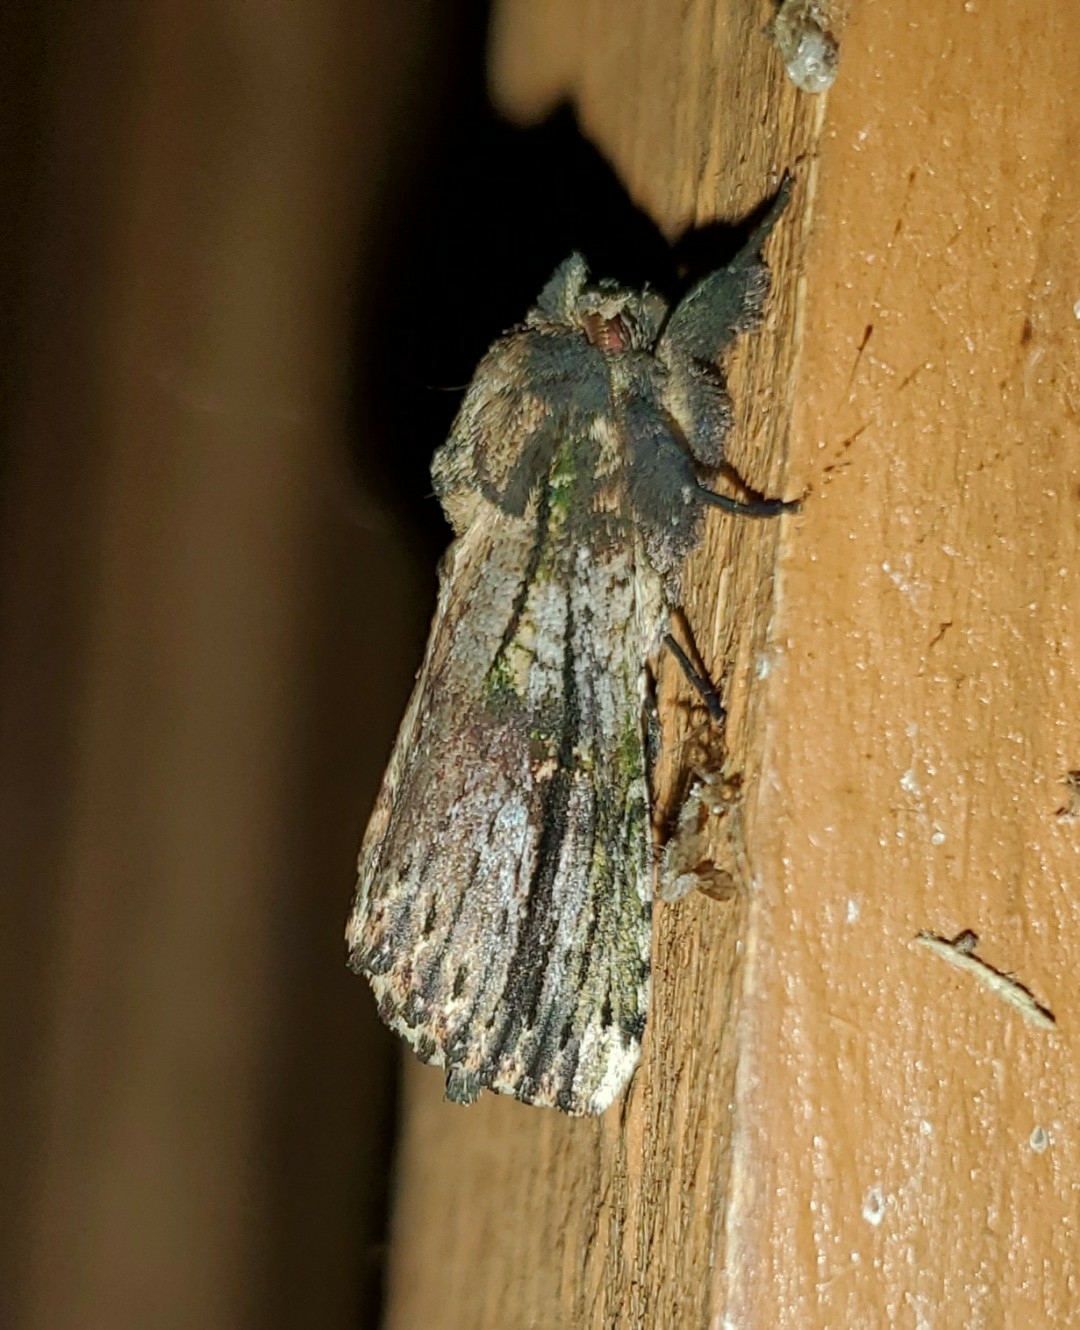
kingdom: Animalia
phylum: Arthropoda
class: Insecta
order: Lepidoptera
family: Notodontidae
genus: Schizura
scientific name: Schizura ipomaeae
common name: Morning-glory prominent
